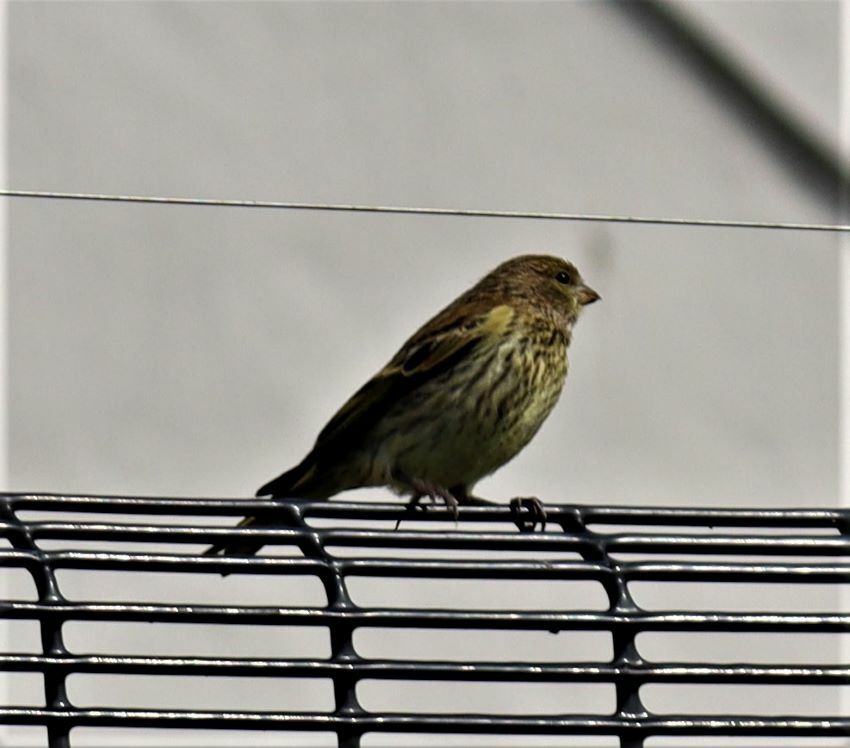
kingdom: Animalia
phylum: Chordata
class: Aves
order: Passeriformes
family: Fringillidae
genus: Serinus
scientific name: Serinus canicollis
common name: Cape canary
